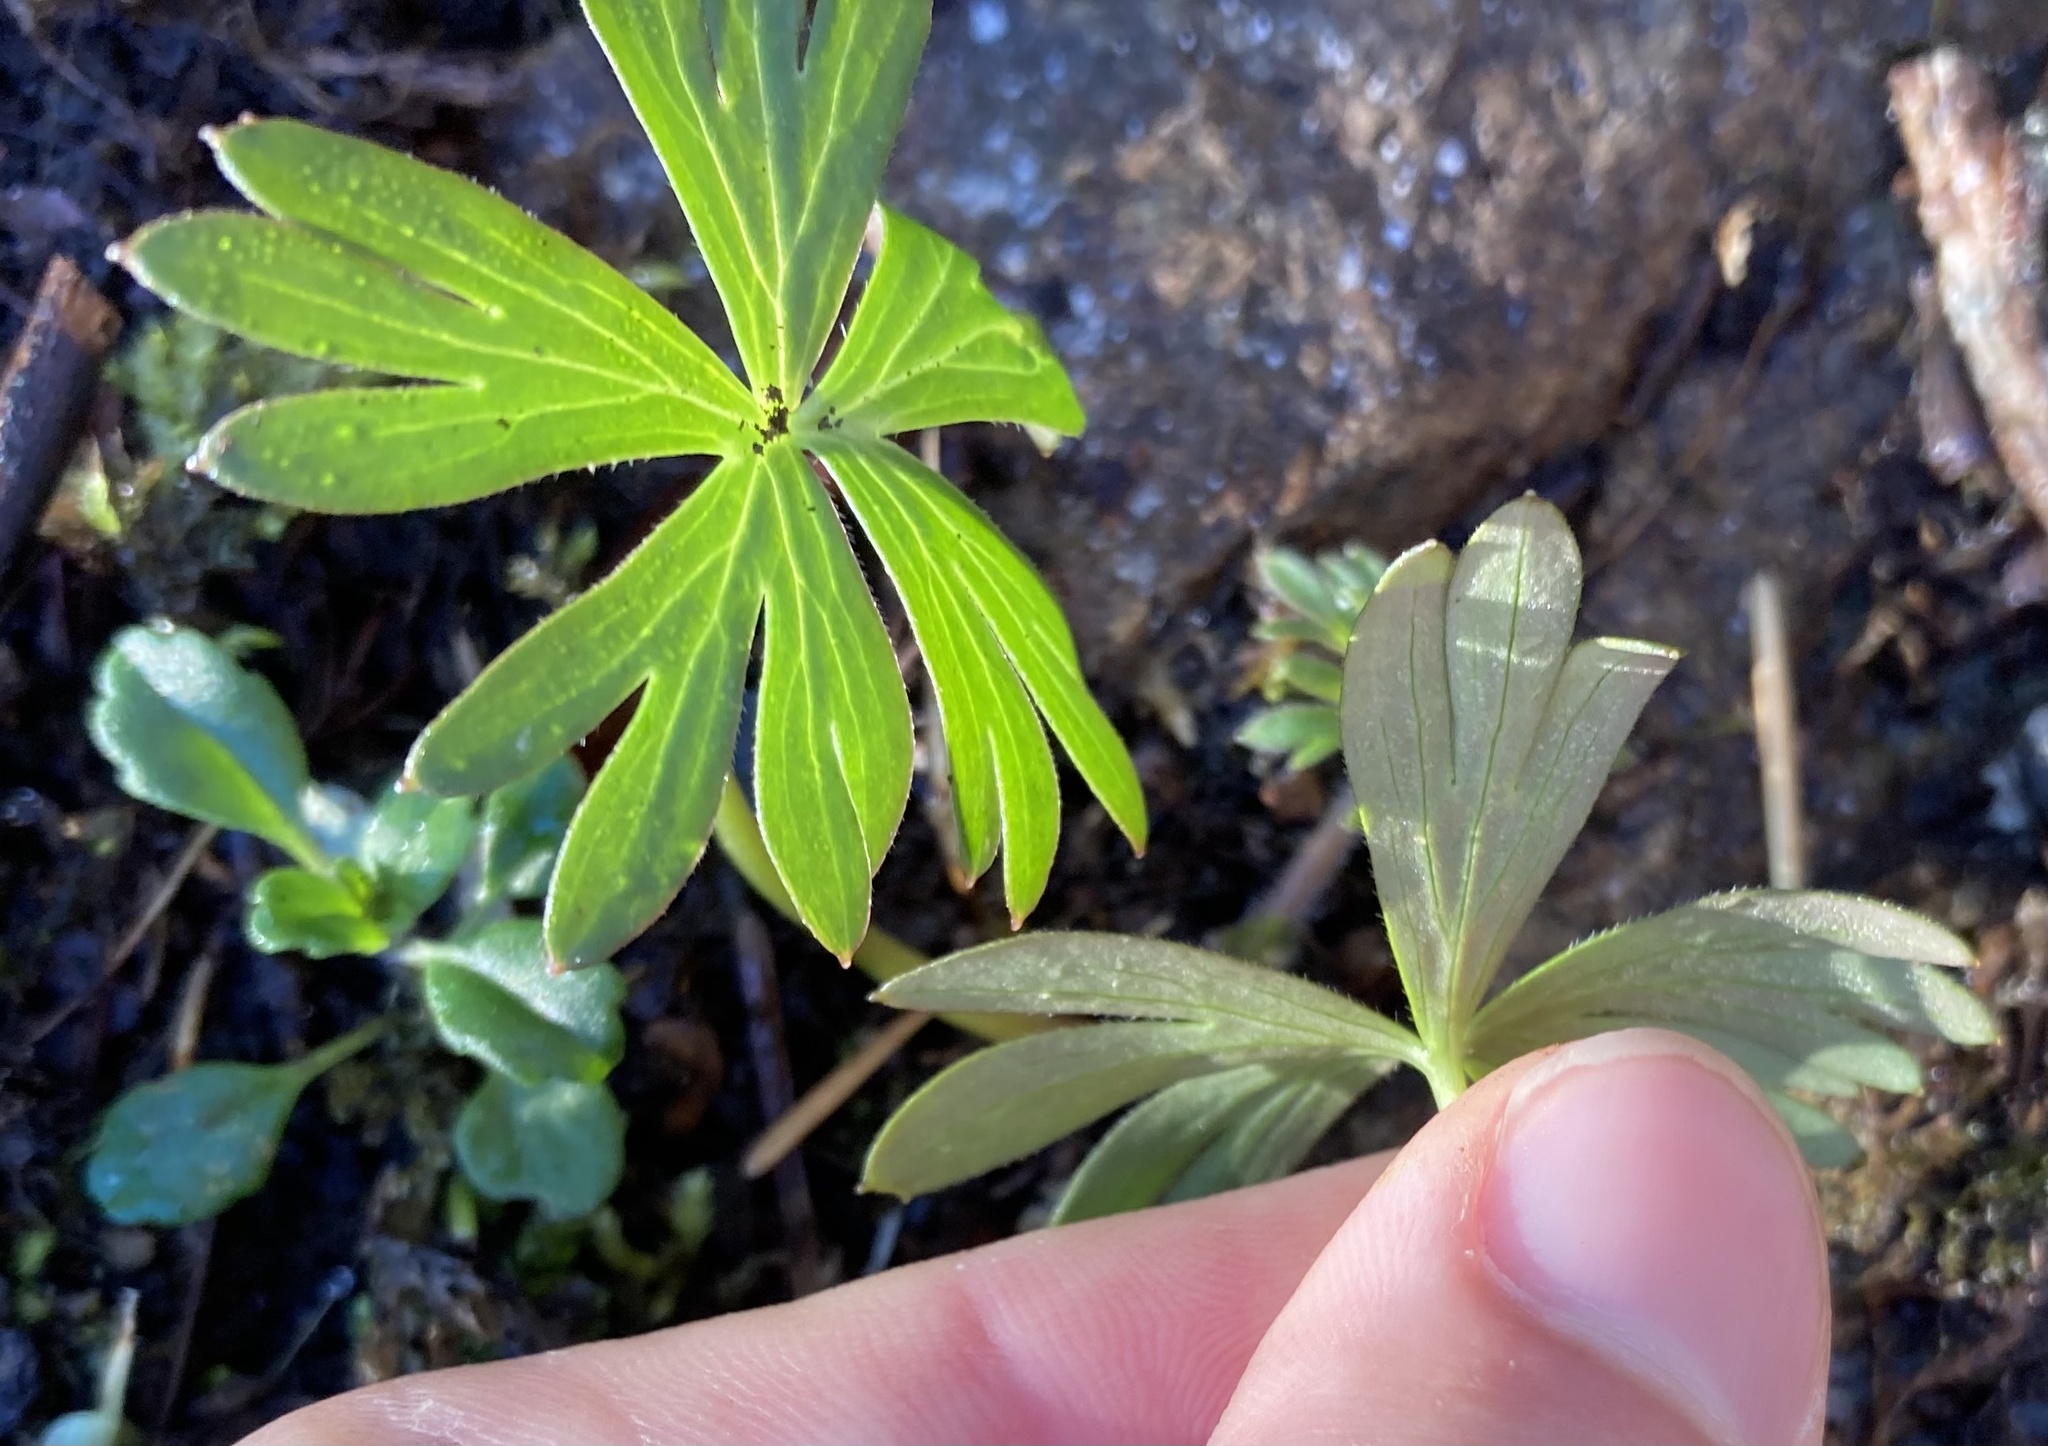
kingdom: Plantae
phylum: Tracheophyta
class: Magnoliopsida
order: Ranunculales
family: Ranunculaceae
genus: Delphinium
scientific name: Delphinium menziesii
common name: Menzies's larkspur
